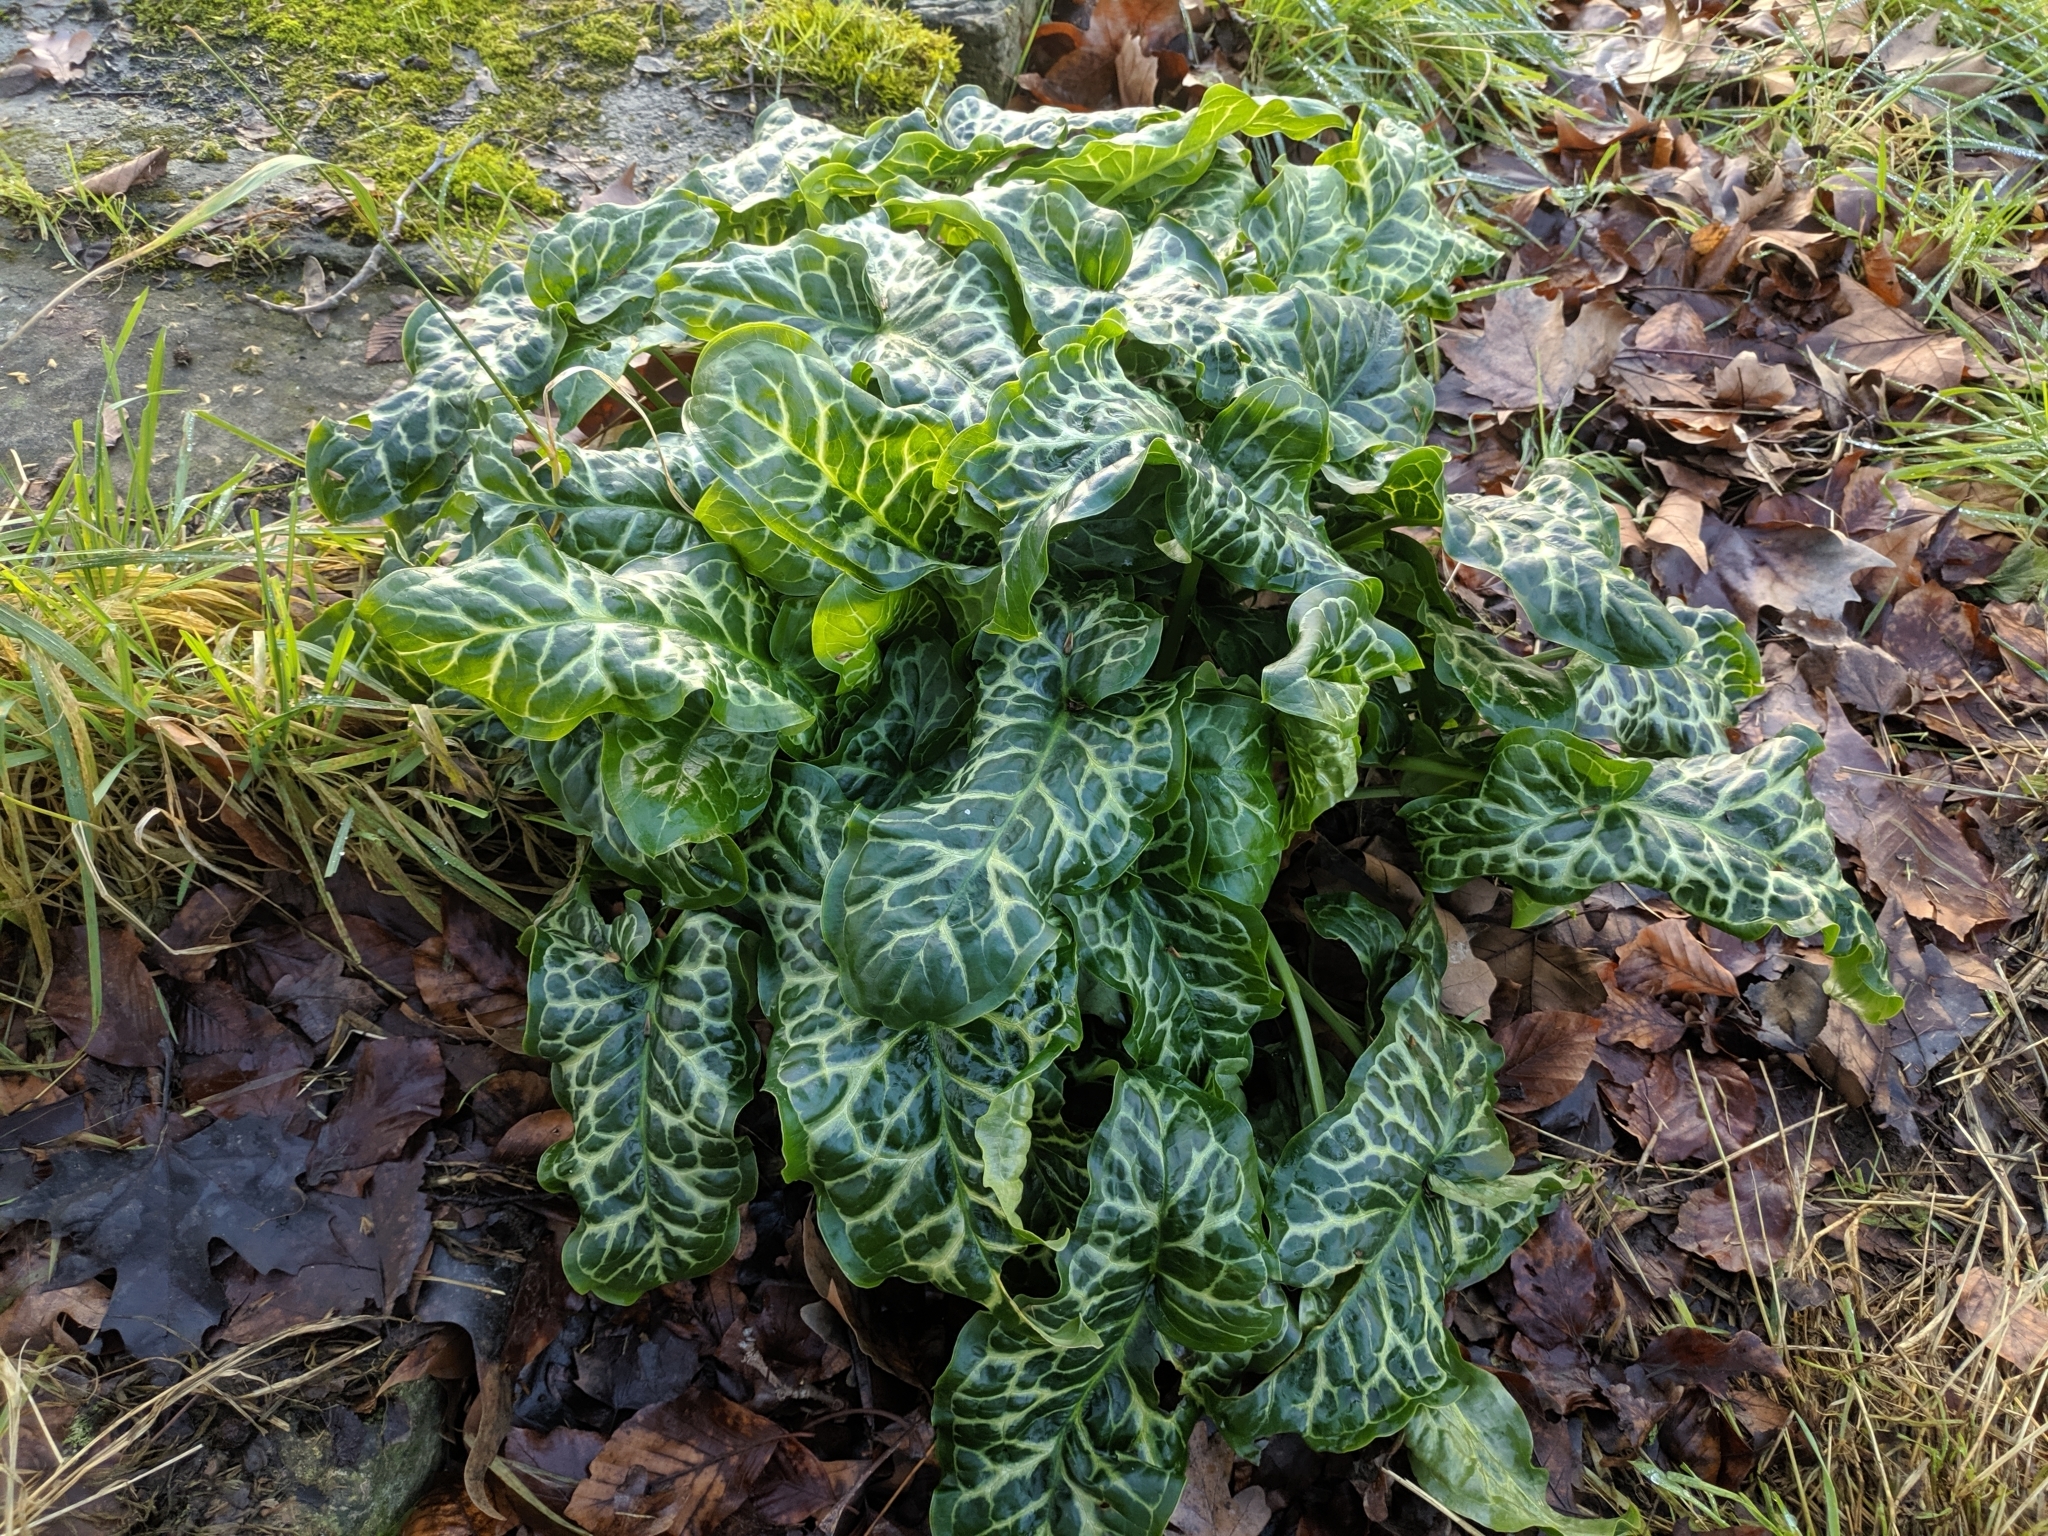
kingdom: Plantae
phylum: Tracheophyta
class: Liliopsida
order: Alismatales
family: Araceae
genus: Arum
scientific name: Arum italicum
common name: Italian lords-and-ladies
